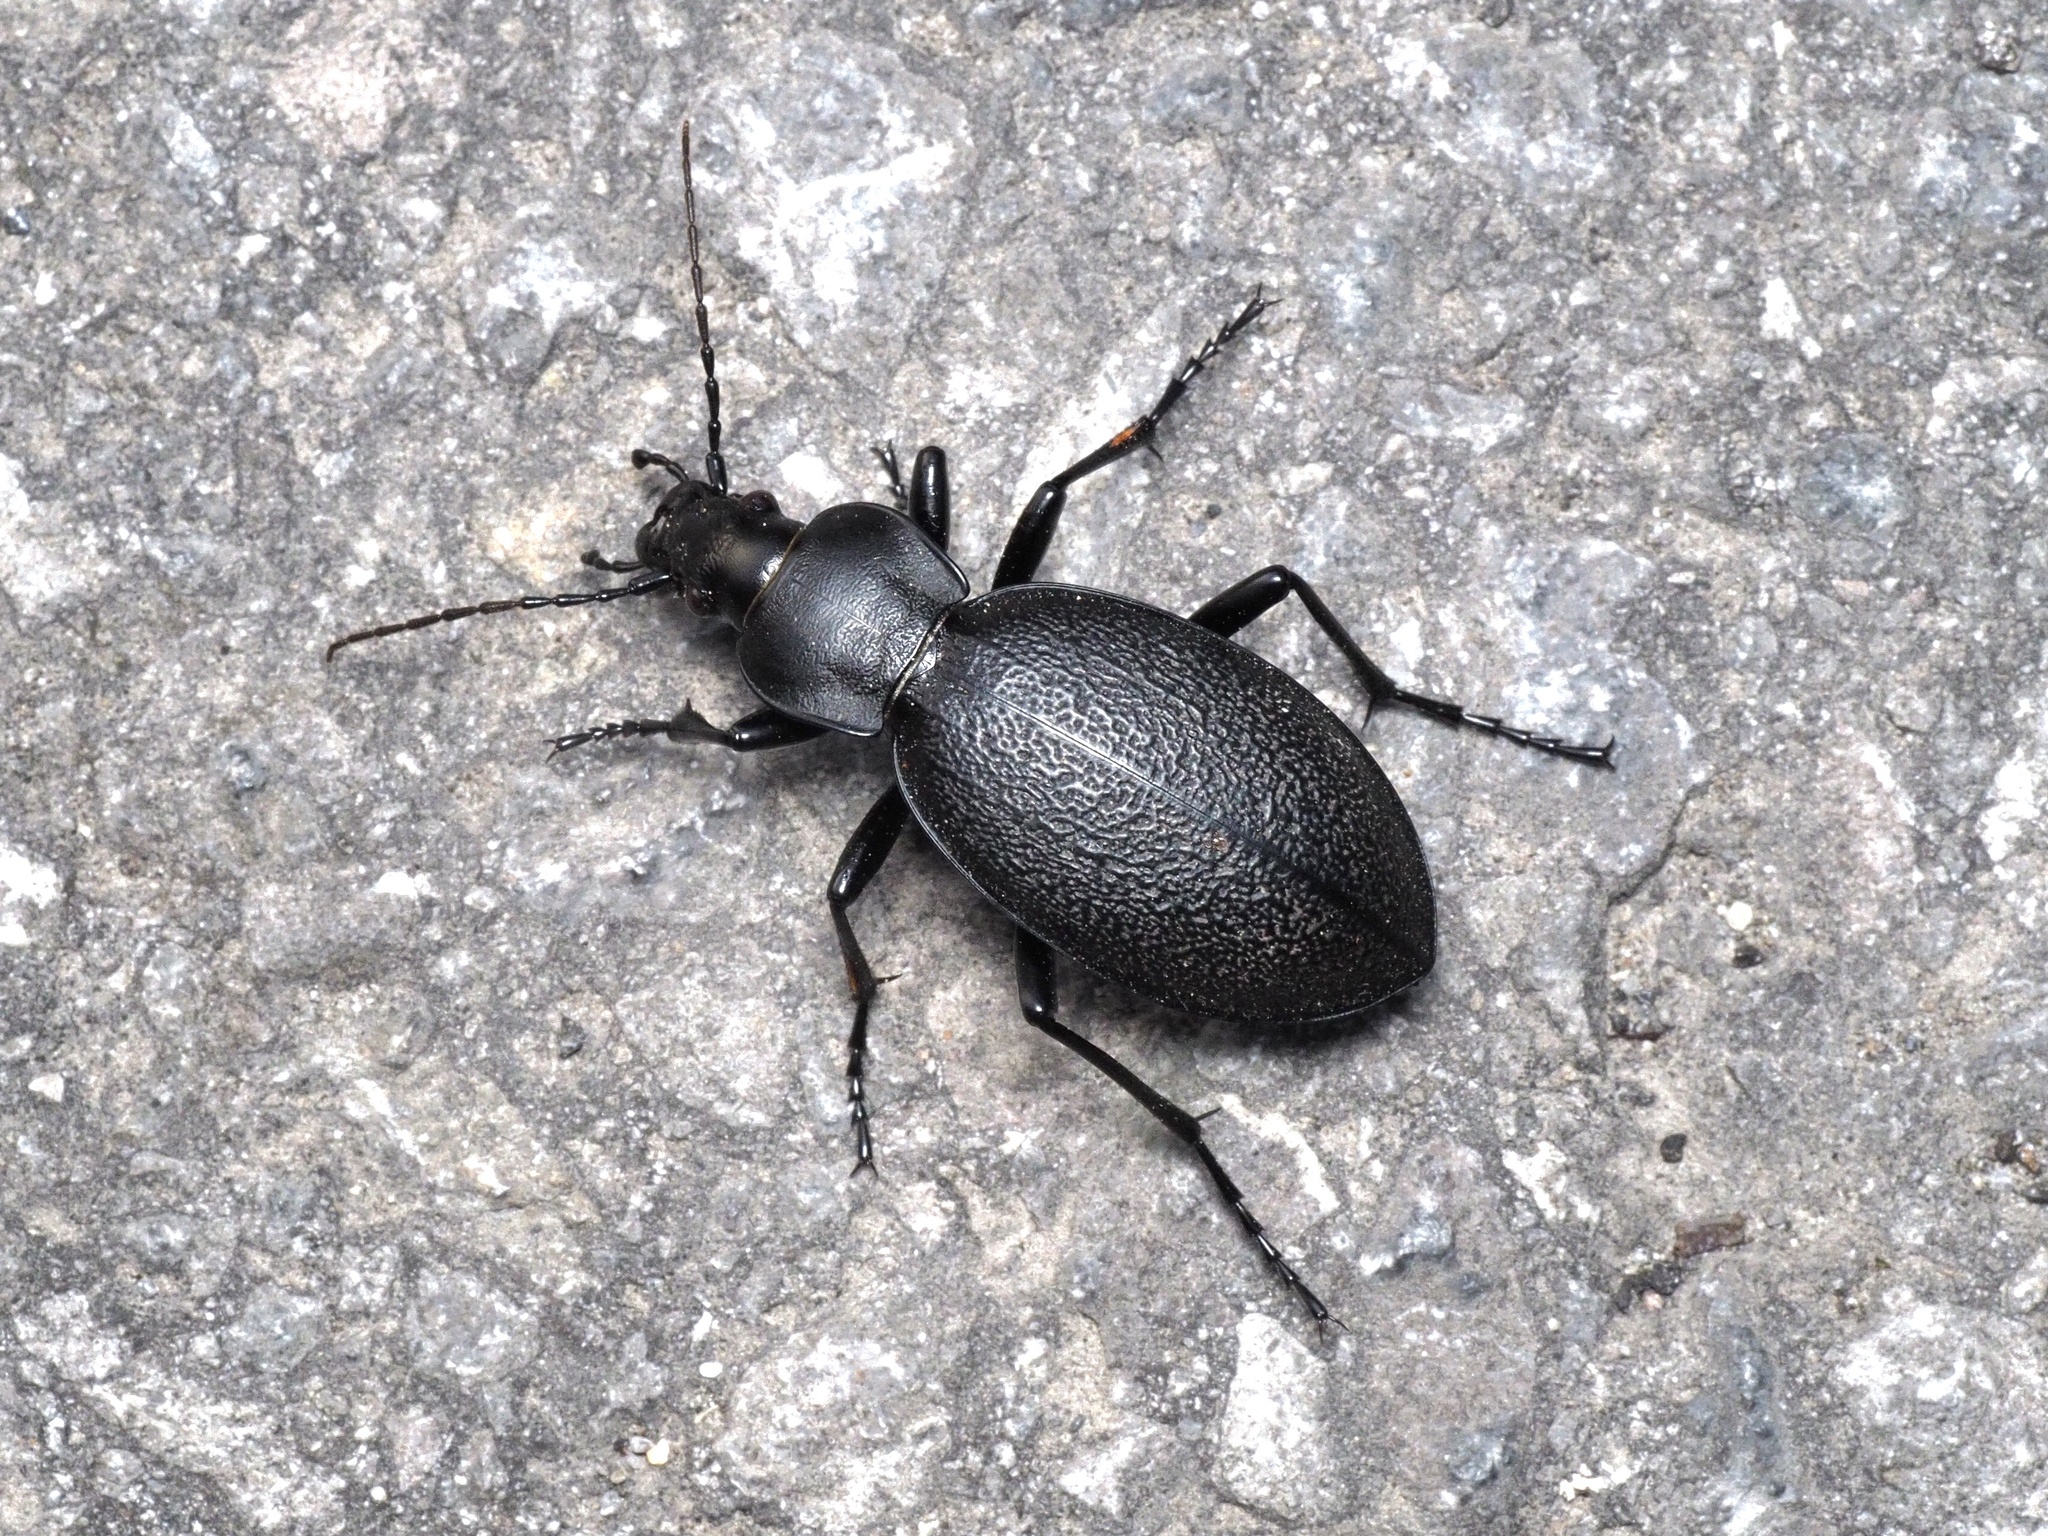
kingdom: Animalia
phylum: Arthropoda
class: Insecta
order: Coleoptera
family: Carabidae
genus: Carabus
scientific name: Carabus coriaceus
